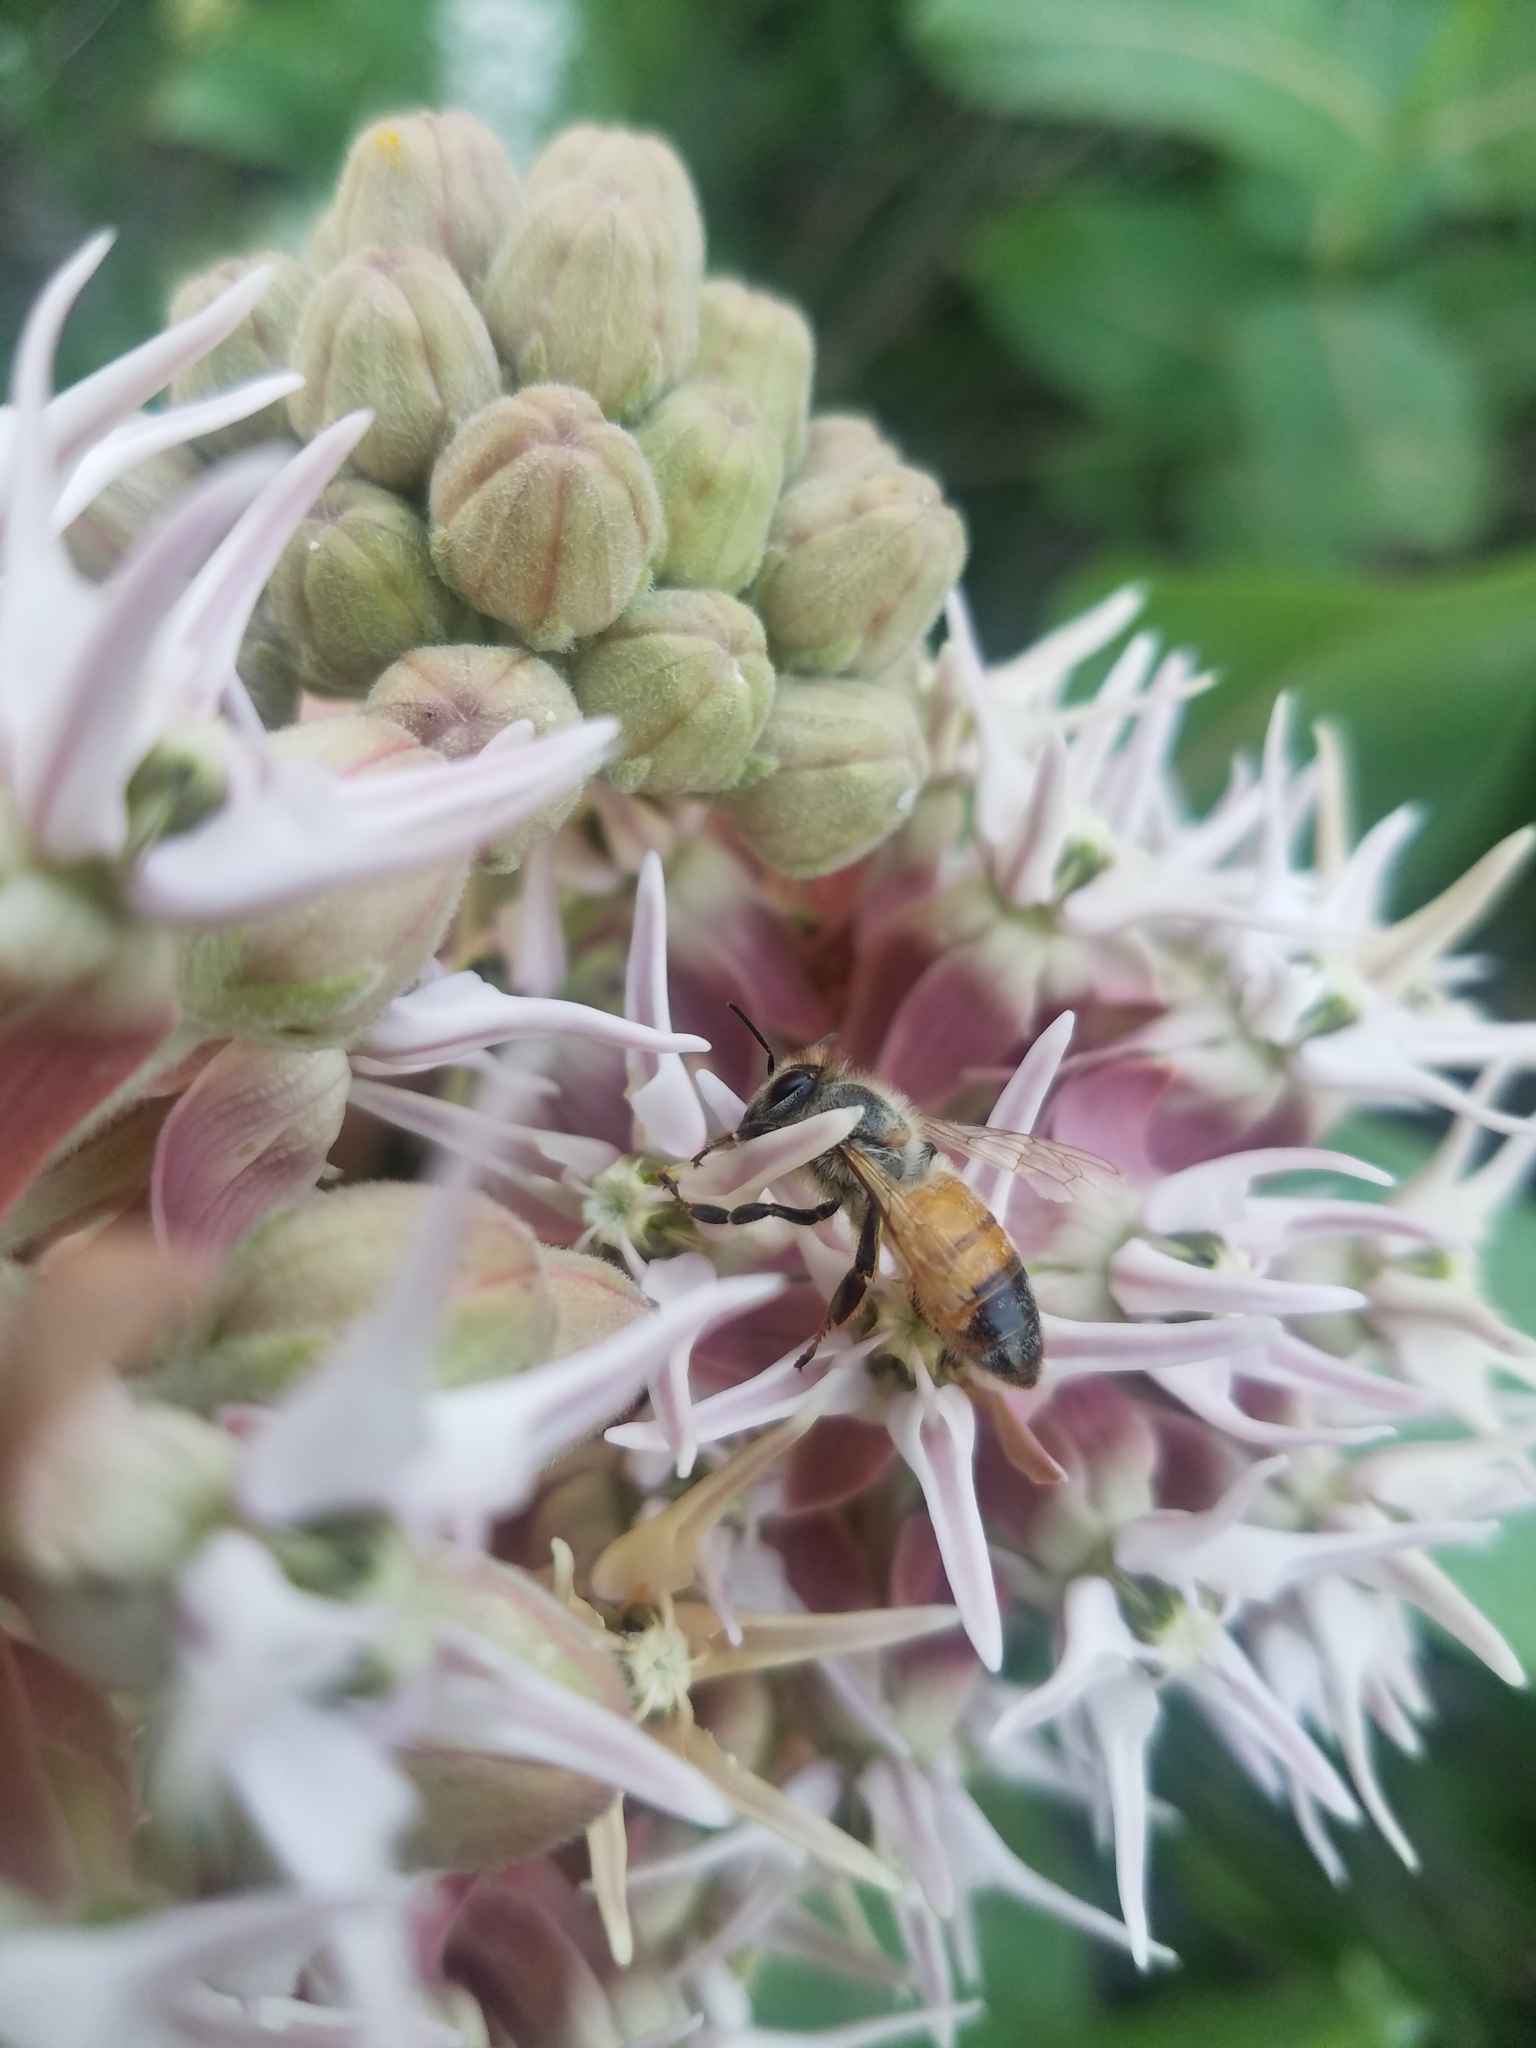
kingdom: Animalia
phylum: Arthropoda
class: Insecta
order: Hymenoptera
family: Apidae
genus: Apis
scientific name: Apis mellifera
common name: Honey bee
